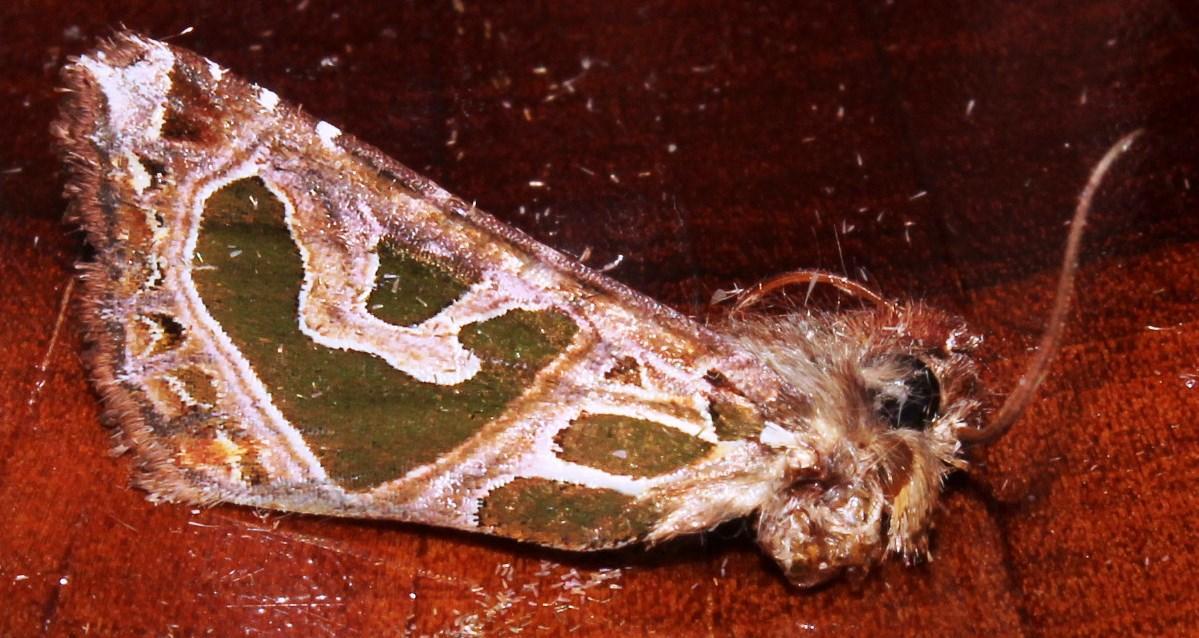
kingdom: Animalia
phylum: Arthropoda
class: Insecta
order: Lepidoptera
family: Noctuidae
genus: Compsotata
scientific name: Compsotata elegantissima
